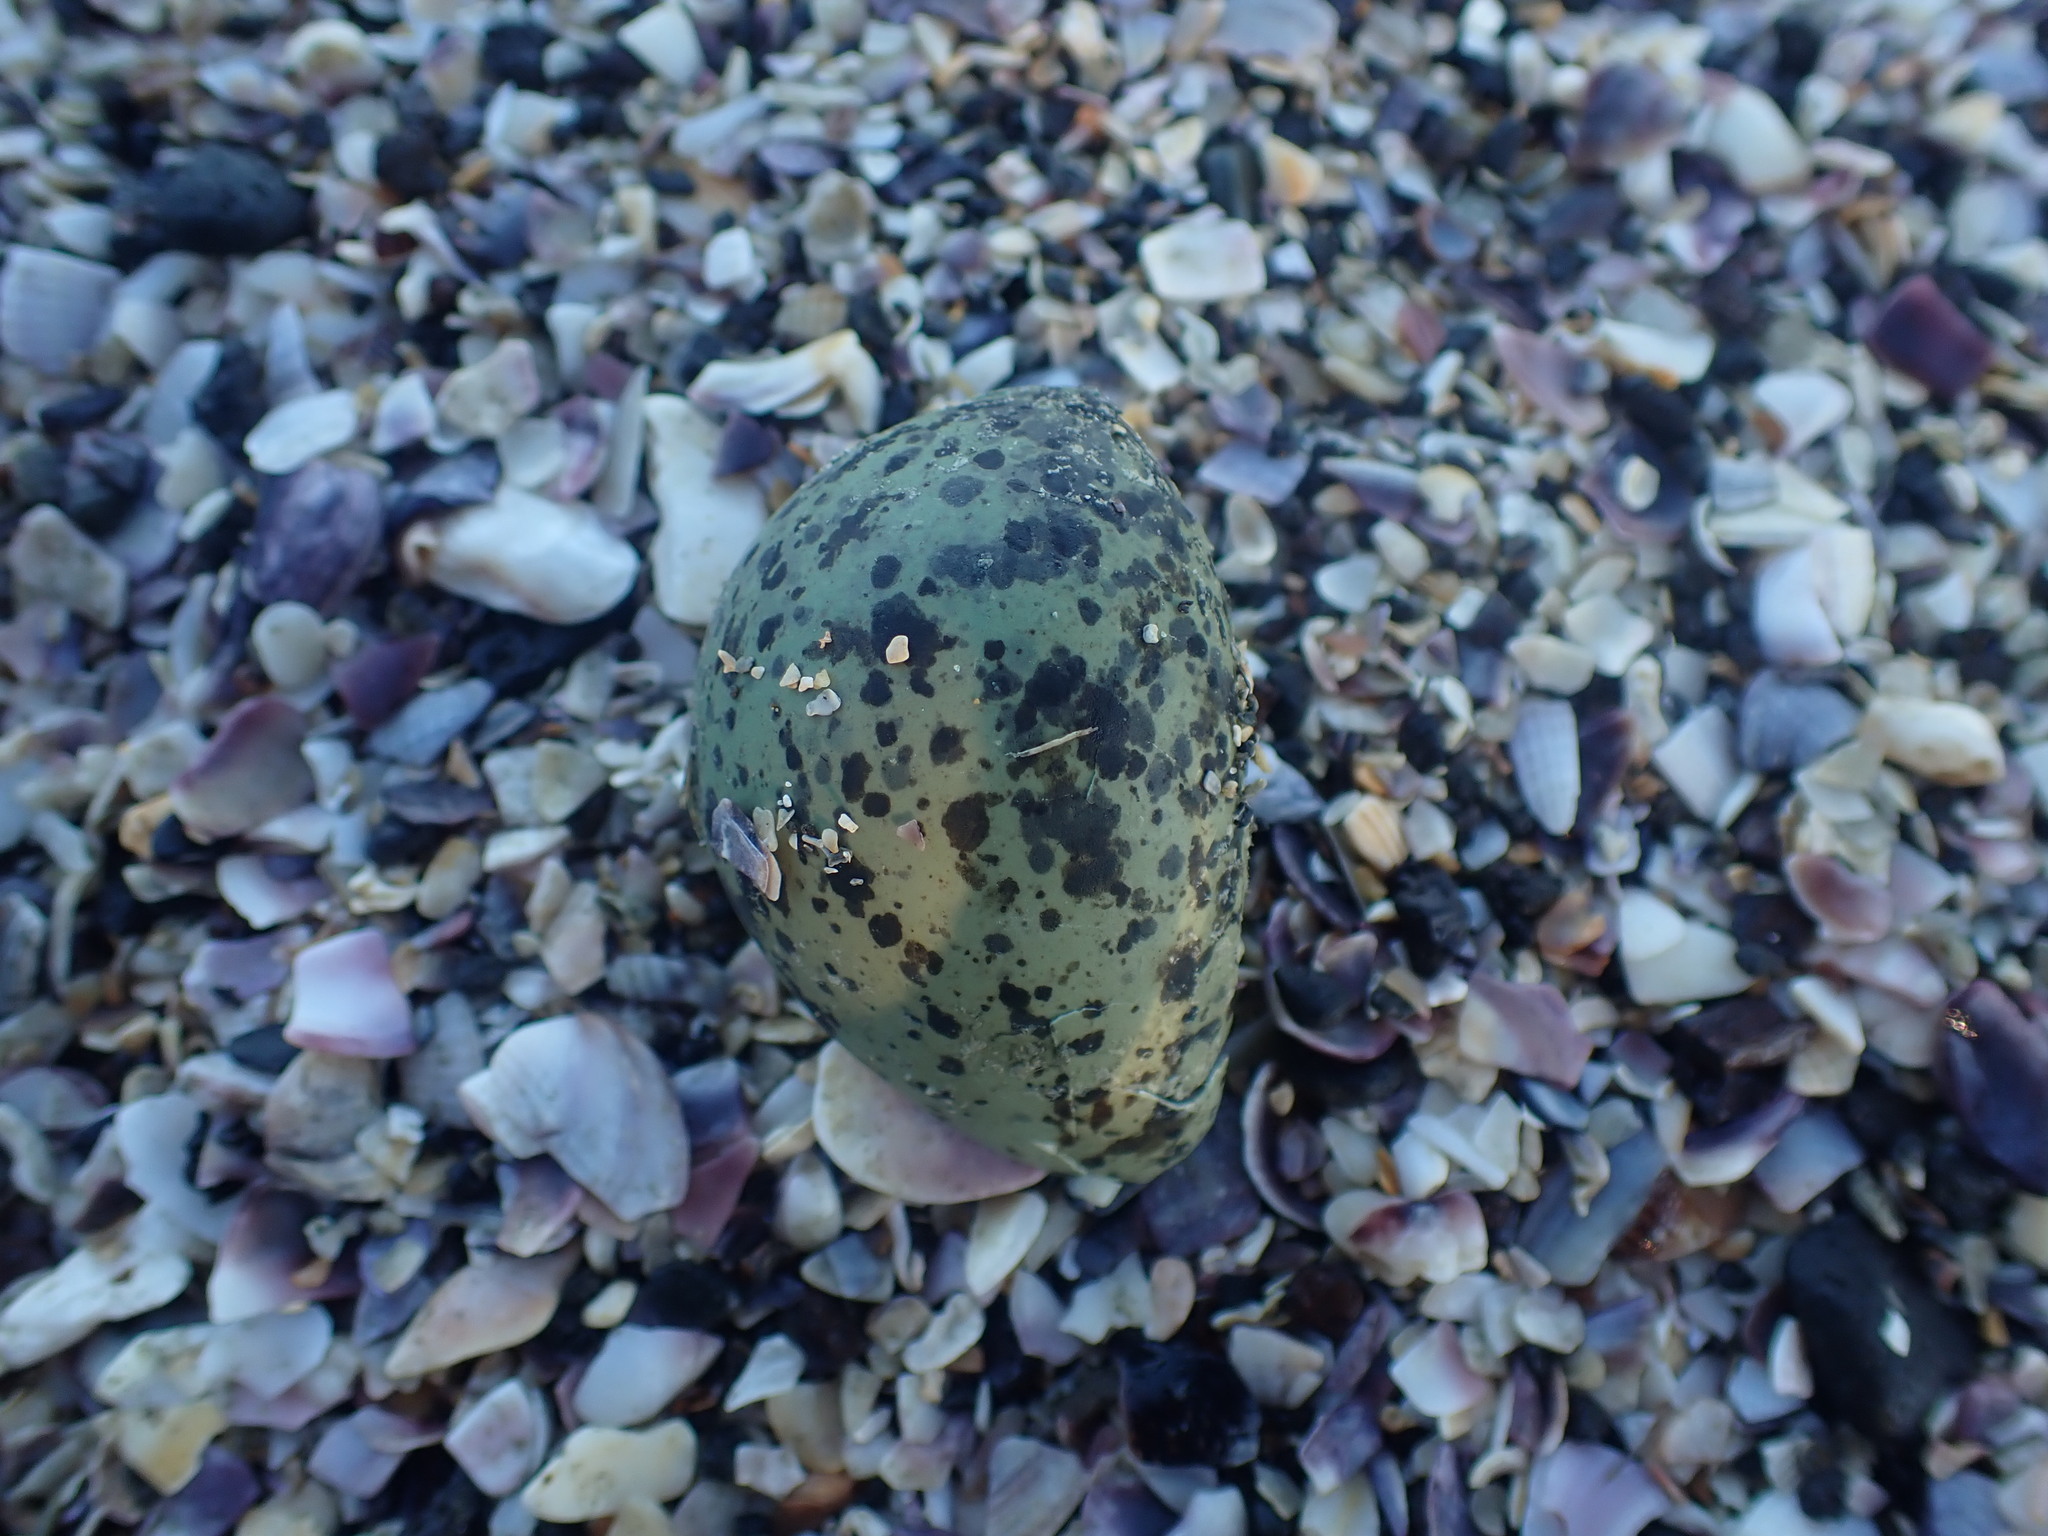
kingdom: Animalia
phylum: Chordata
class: Aves
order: Charadriiformes
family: Haematopodidae
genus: Haematopus
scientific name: Haematopus unicolor
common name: Variable oystercatcher
